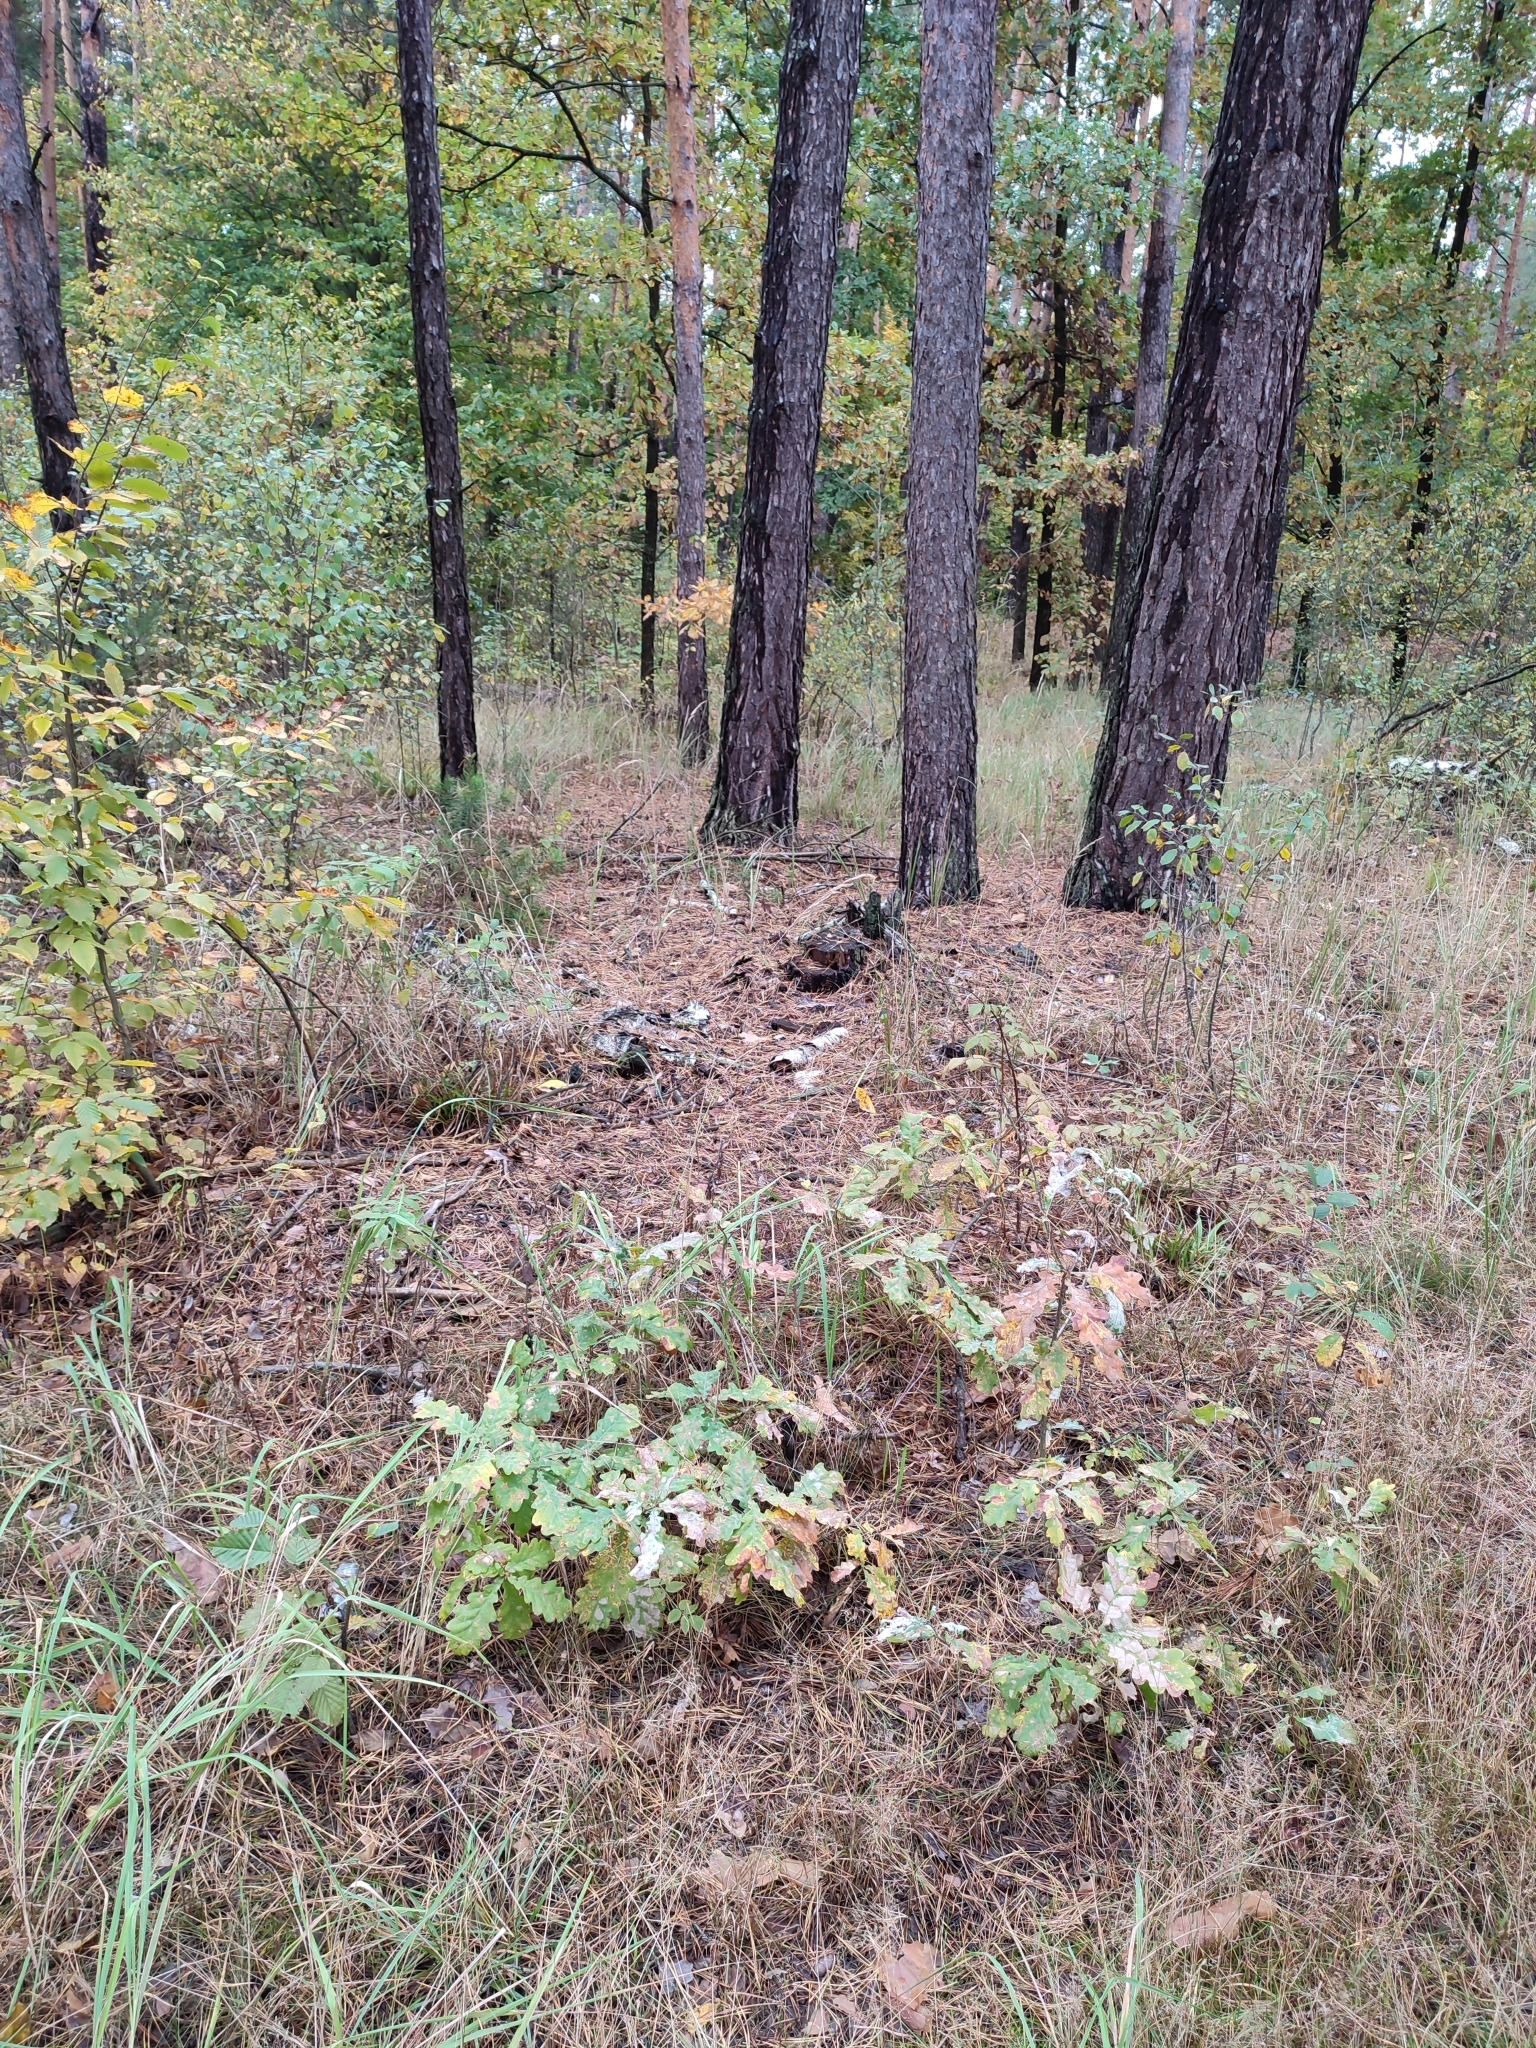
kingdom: Plantae
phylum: Tracheophyta
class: Magnoliopsida
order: Fagales
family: Fagaceae
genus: Quercus
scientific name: Quercus robur
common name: Pedunculate oak
